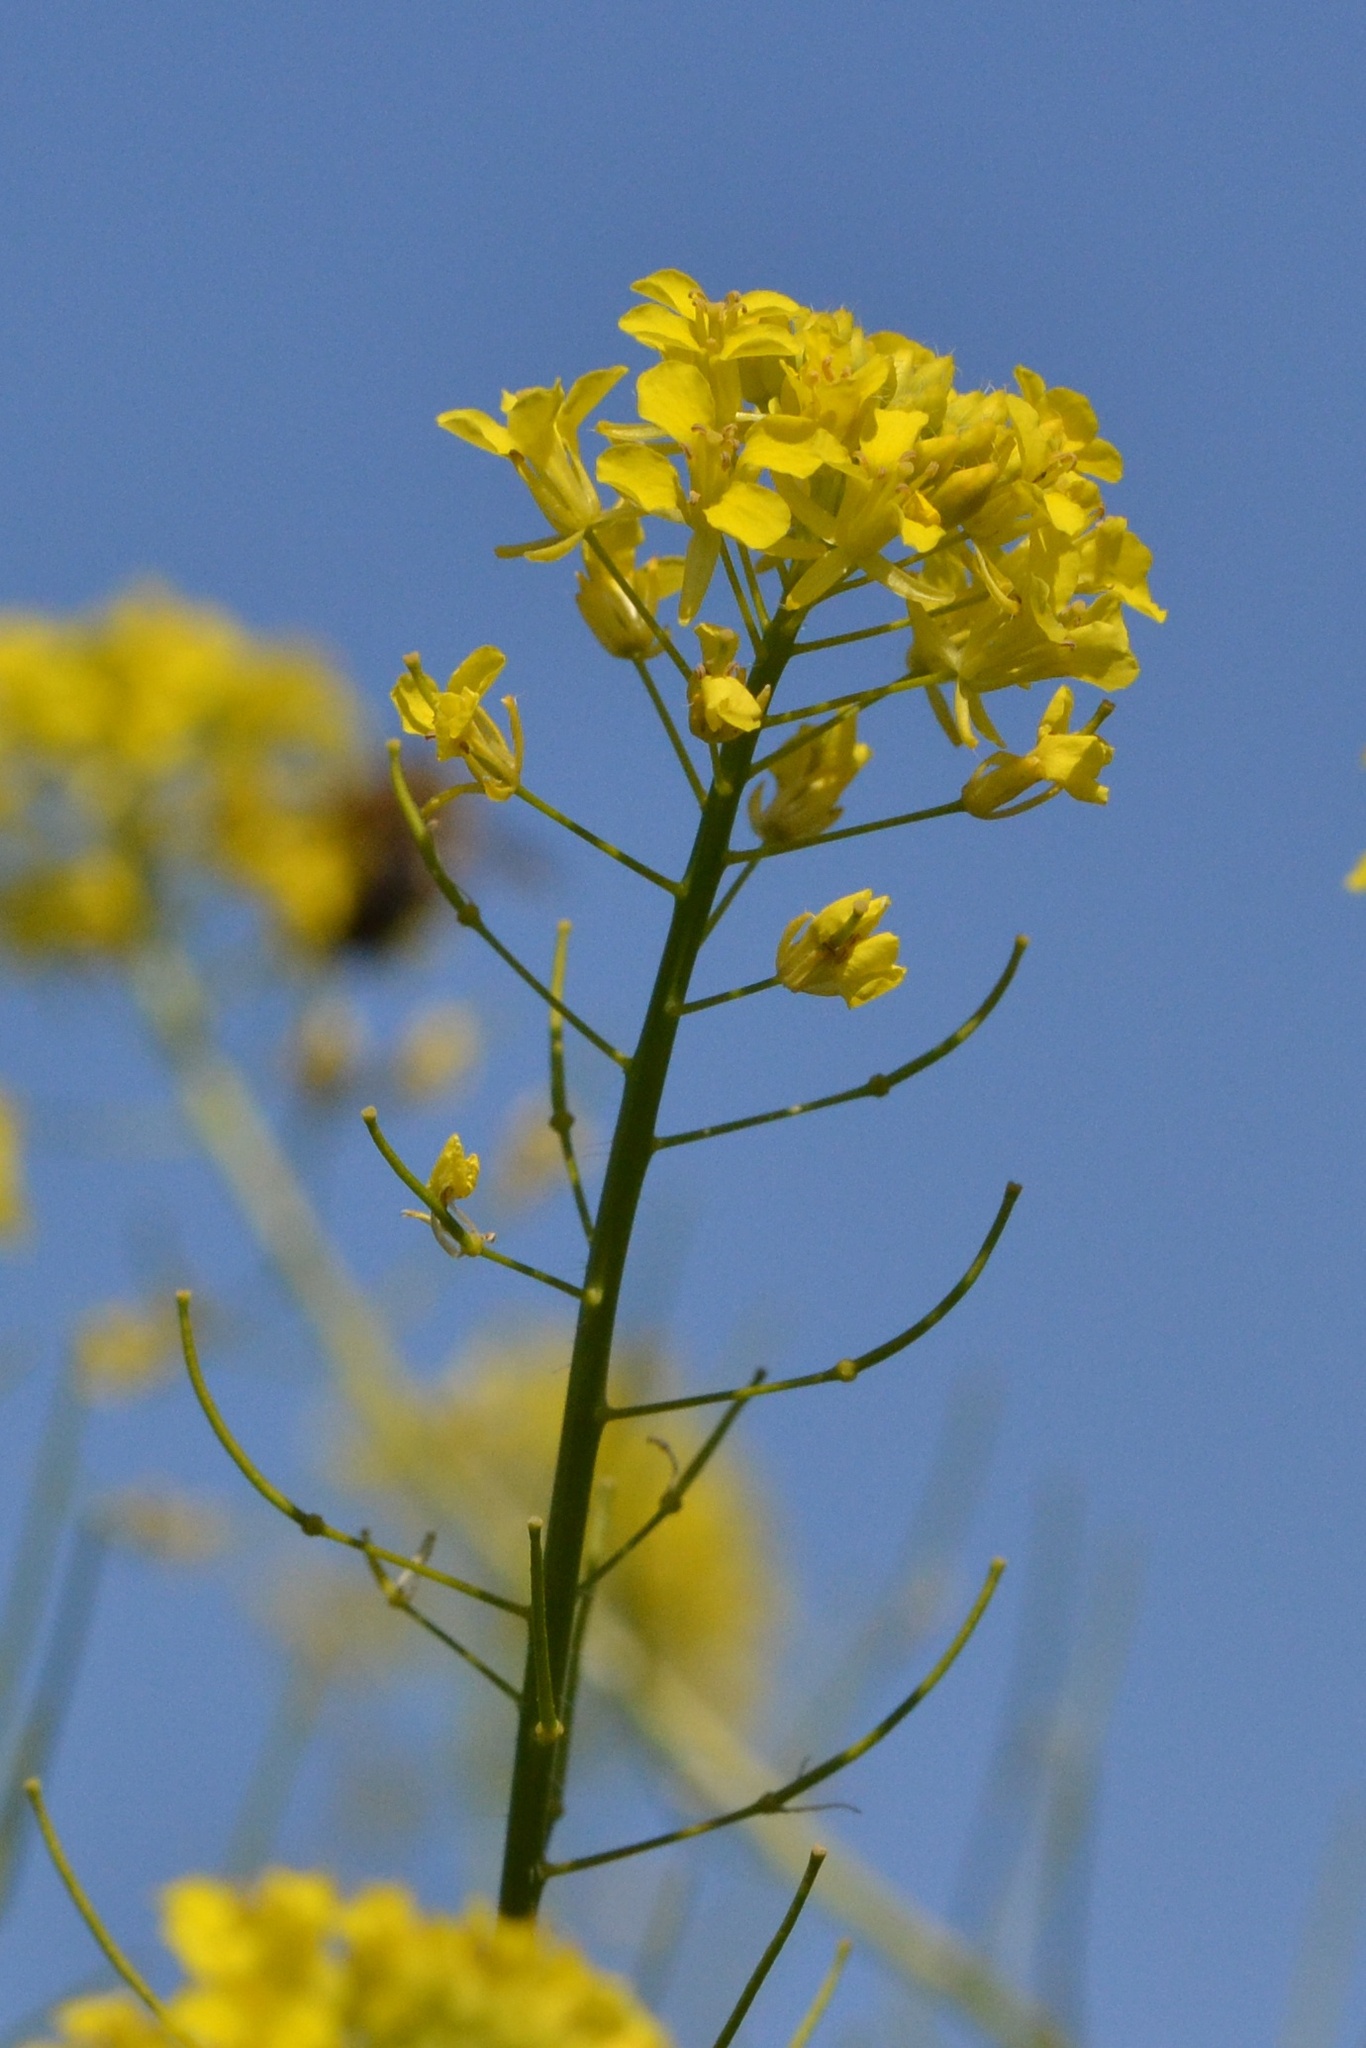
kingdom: Plantae
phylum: Tracheophyta
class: Magnoliopsida
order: Brassicales
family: Brassicaceae
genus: Sisymbrium
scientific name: Sisymbrium loeselii
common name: False london-rocket
